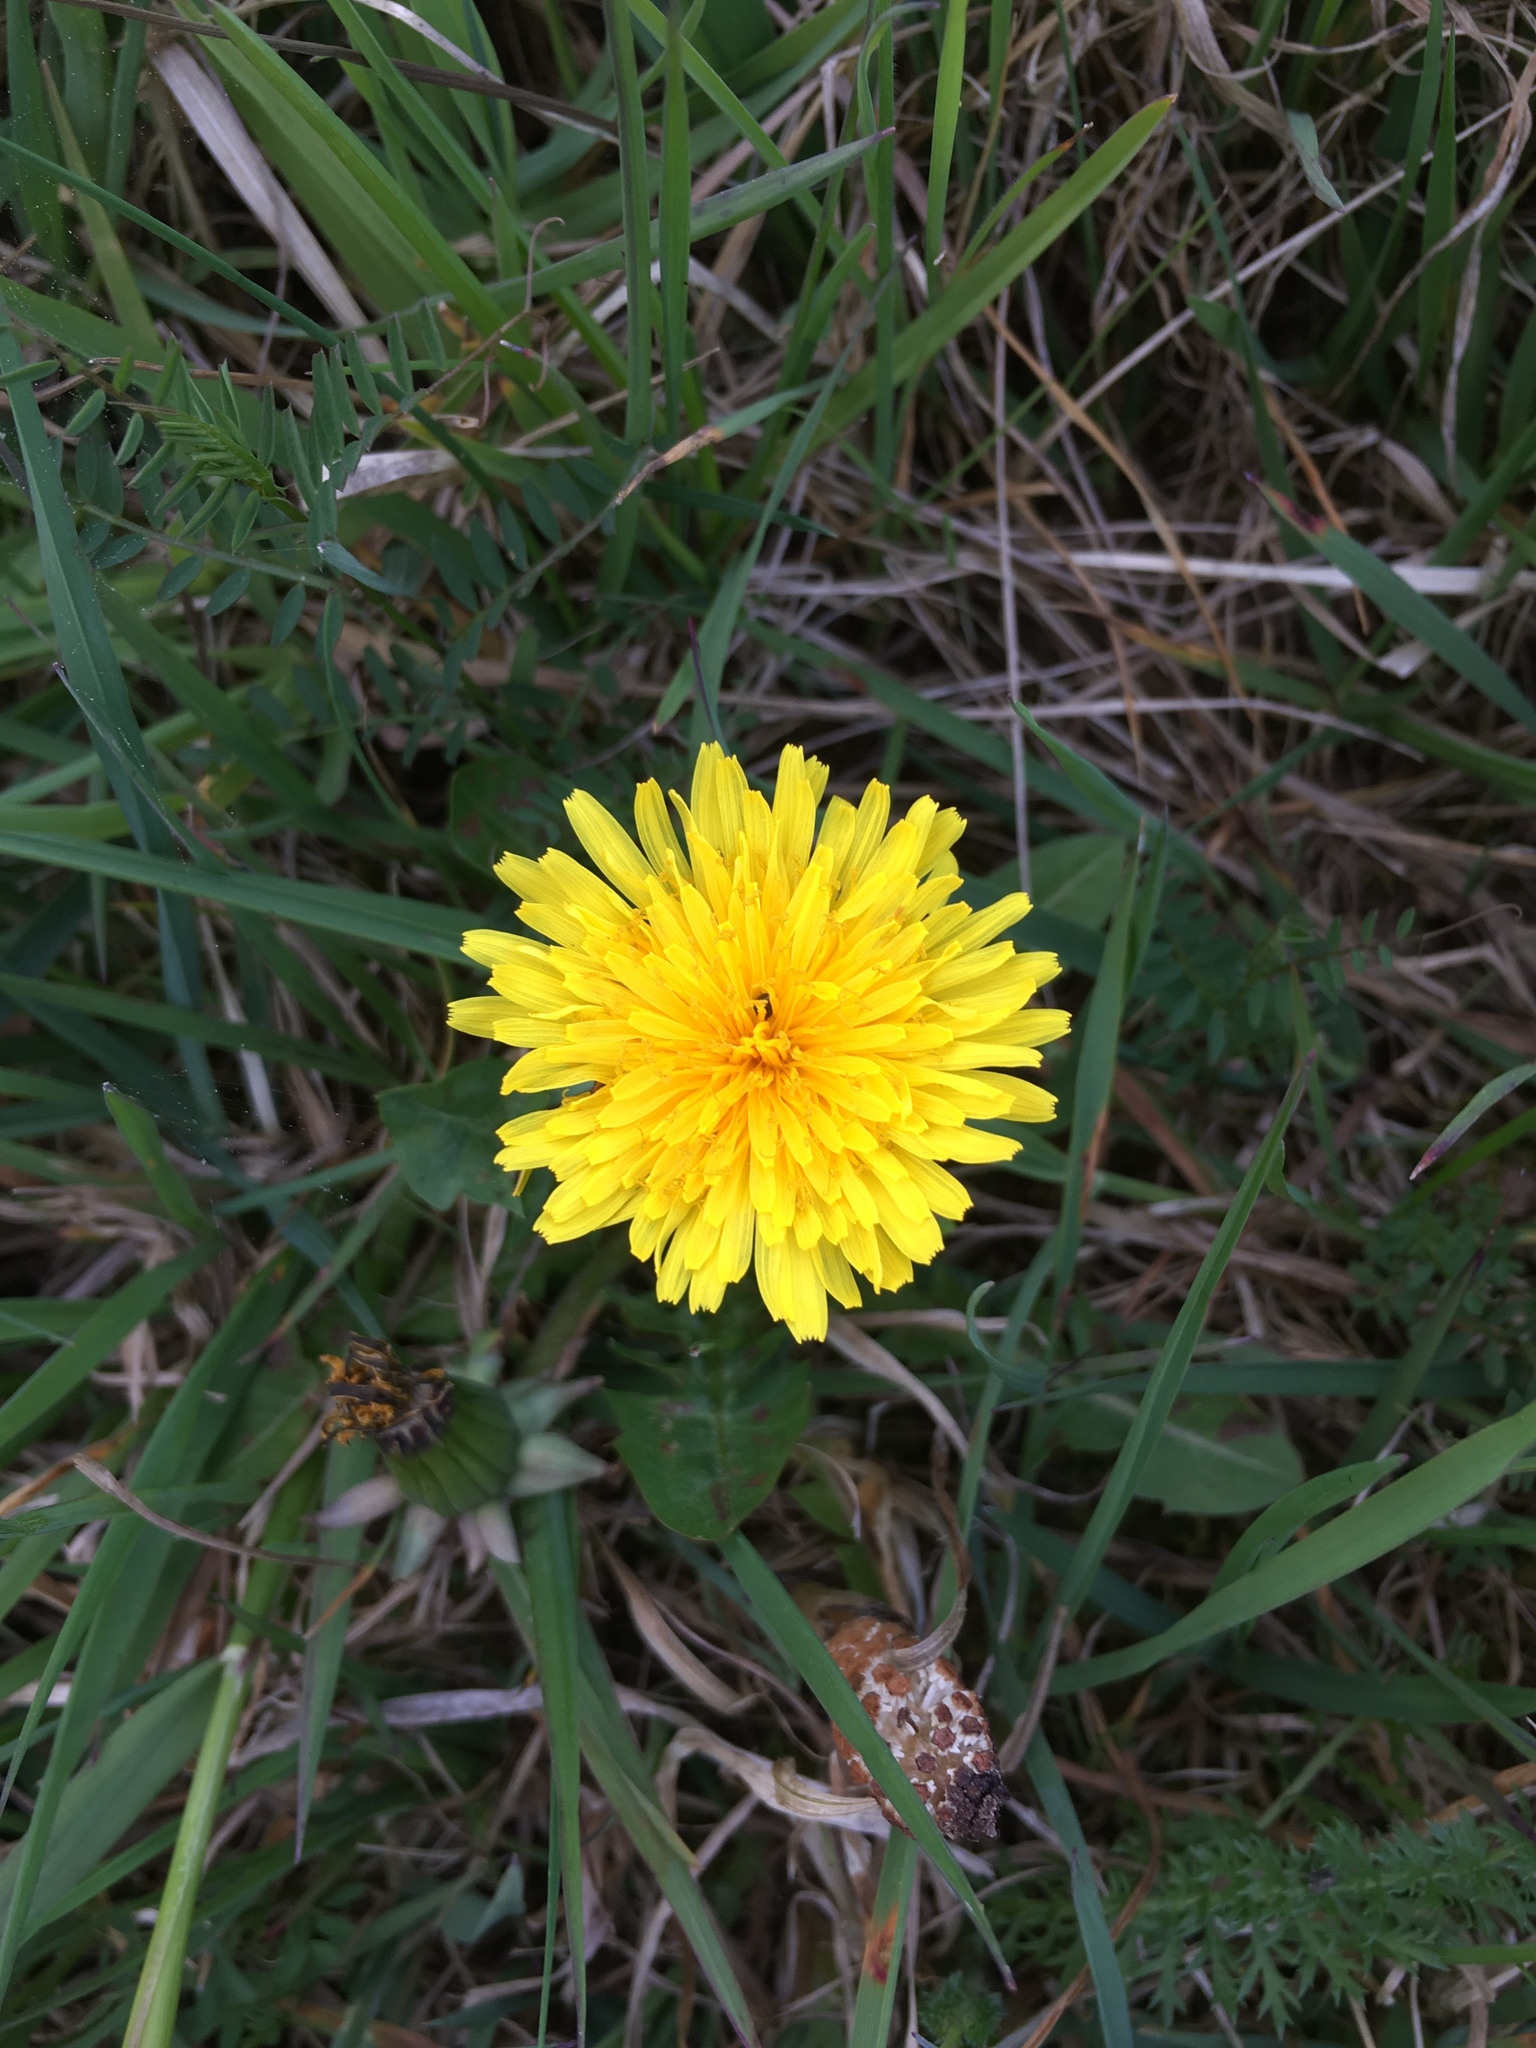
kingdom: Plantae
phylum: Tracheophyta
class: Magnoliopsida
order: Asterales
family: Asteraceae
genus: Taraxacum
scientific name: Taraxacum officinale
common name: Common dandelion
